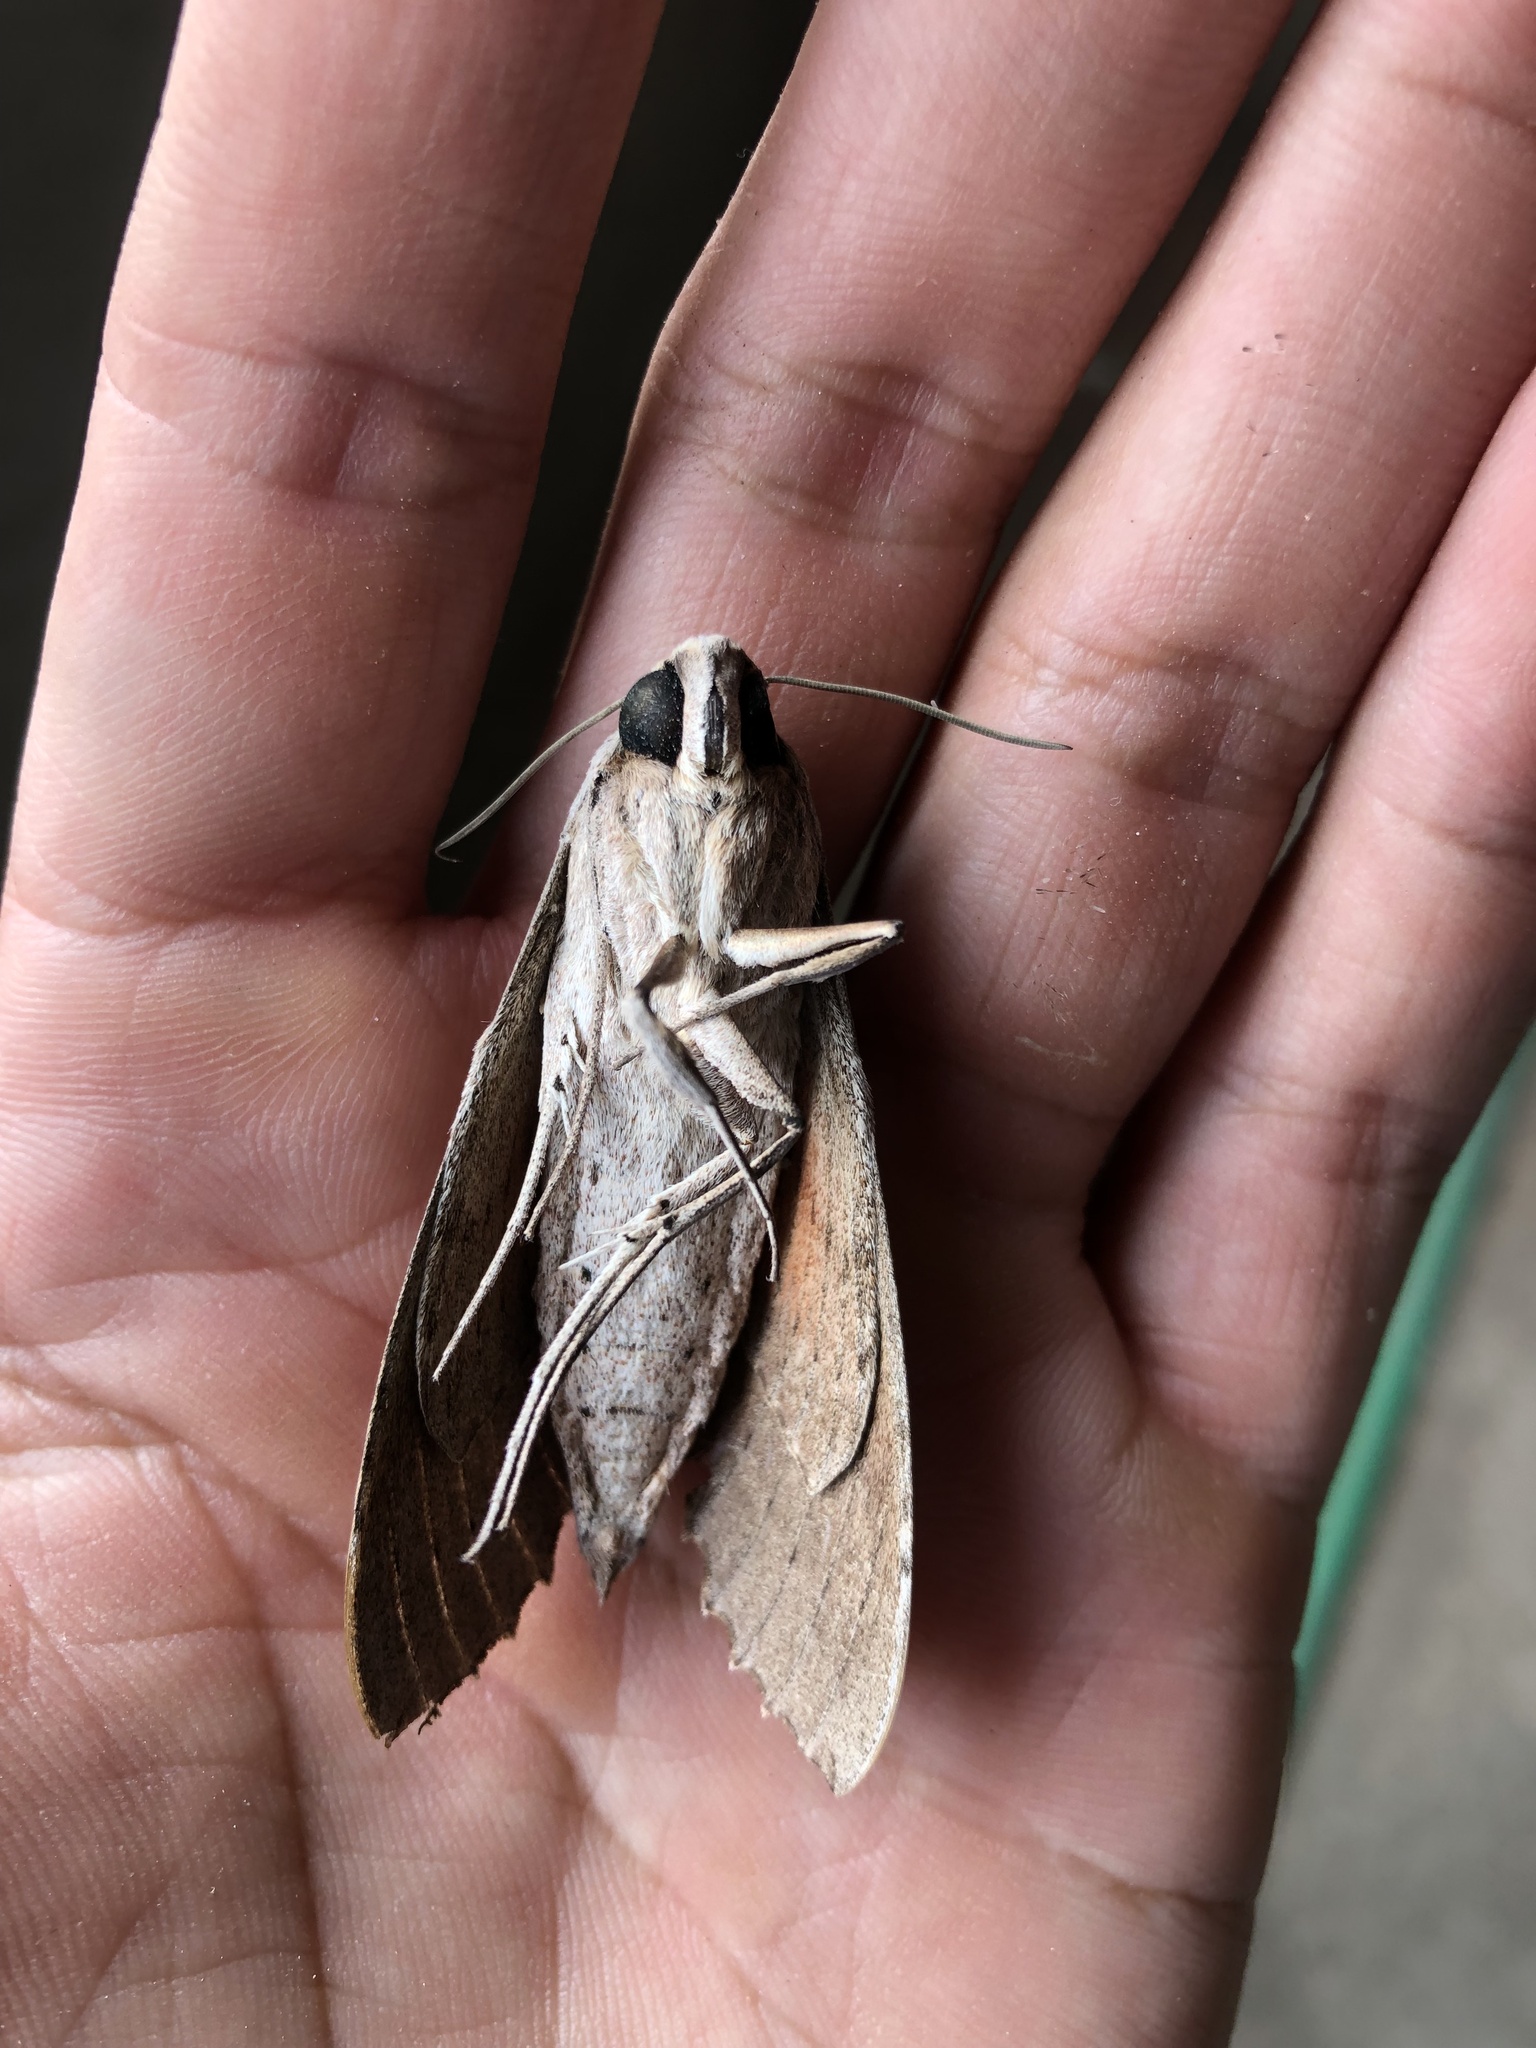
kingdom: Animalia
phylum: Arthropoda
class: Insecta
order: Lepidoptera
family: Sphingidae
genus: Erinnyis
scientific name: Erinnyis ello
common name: Ello sphinx
